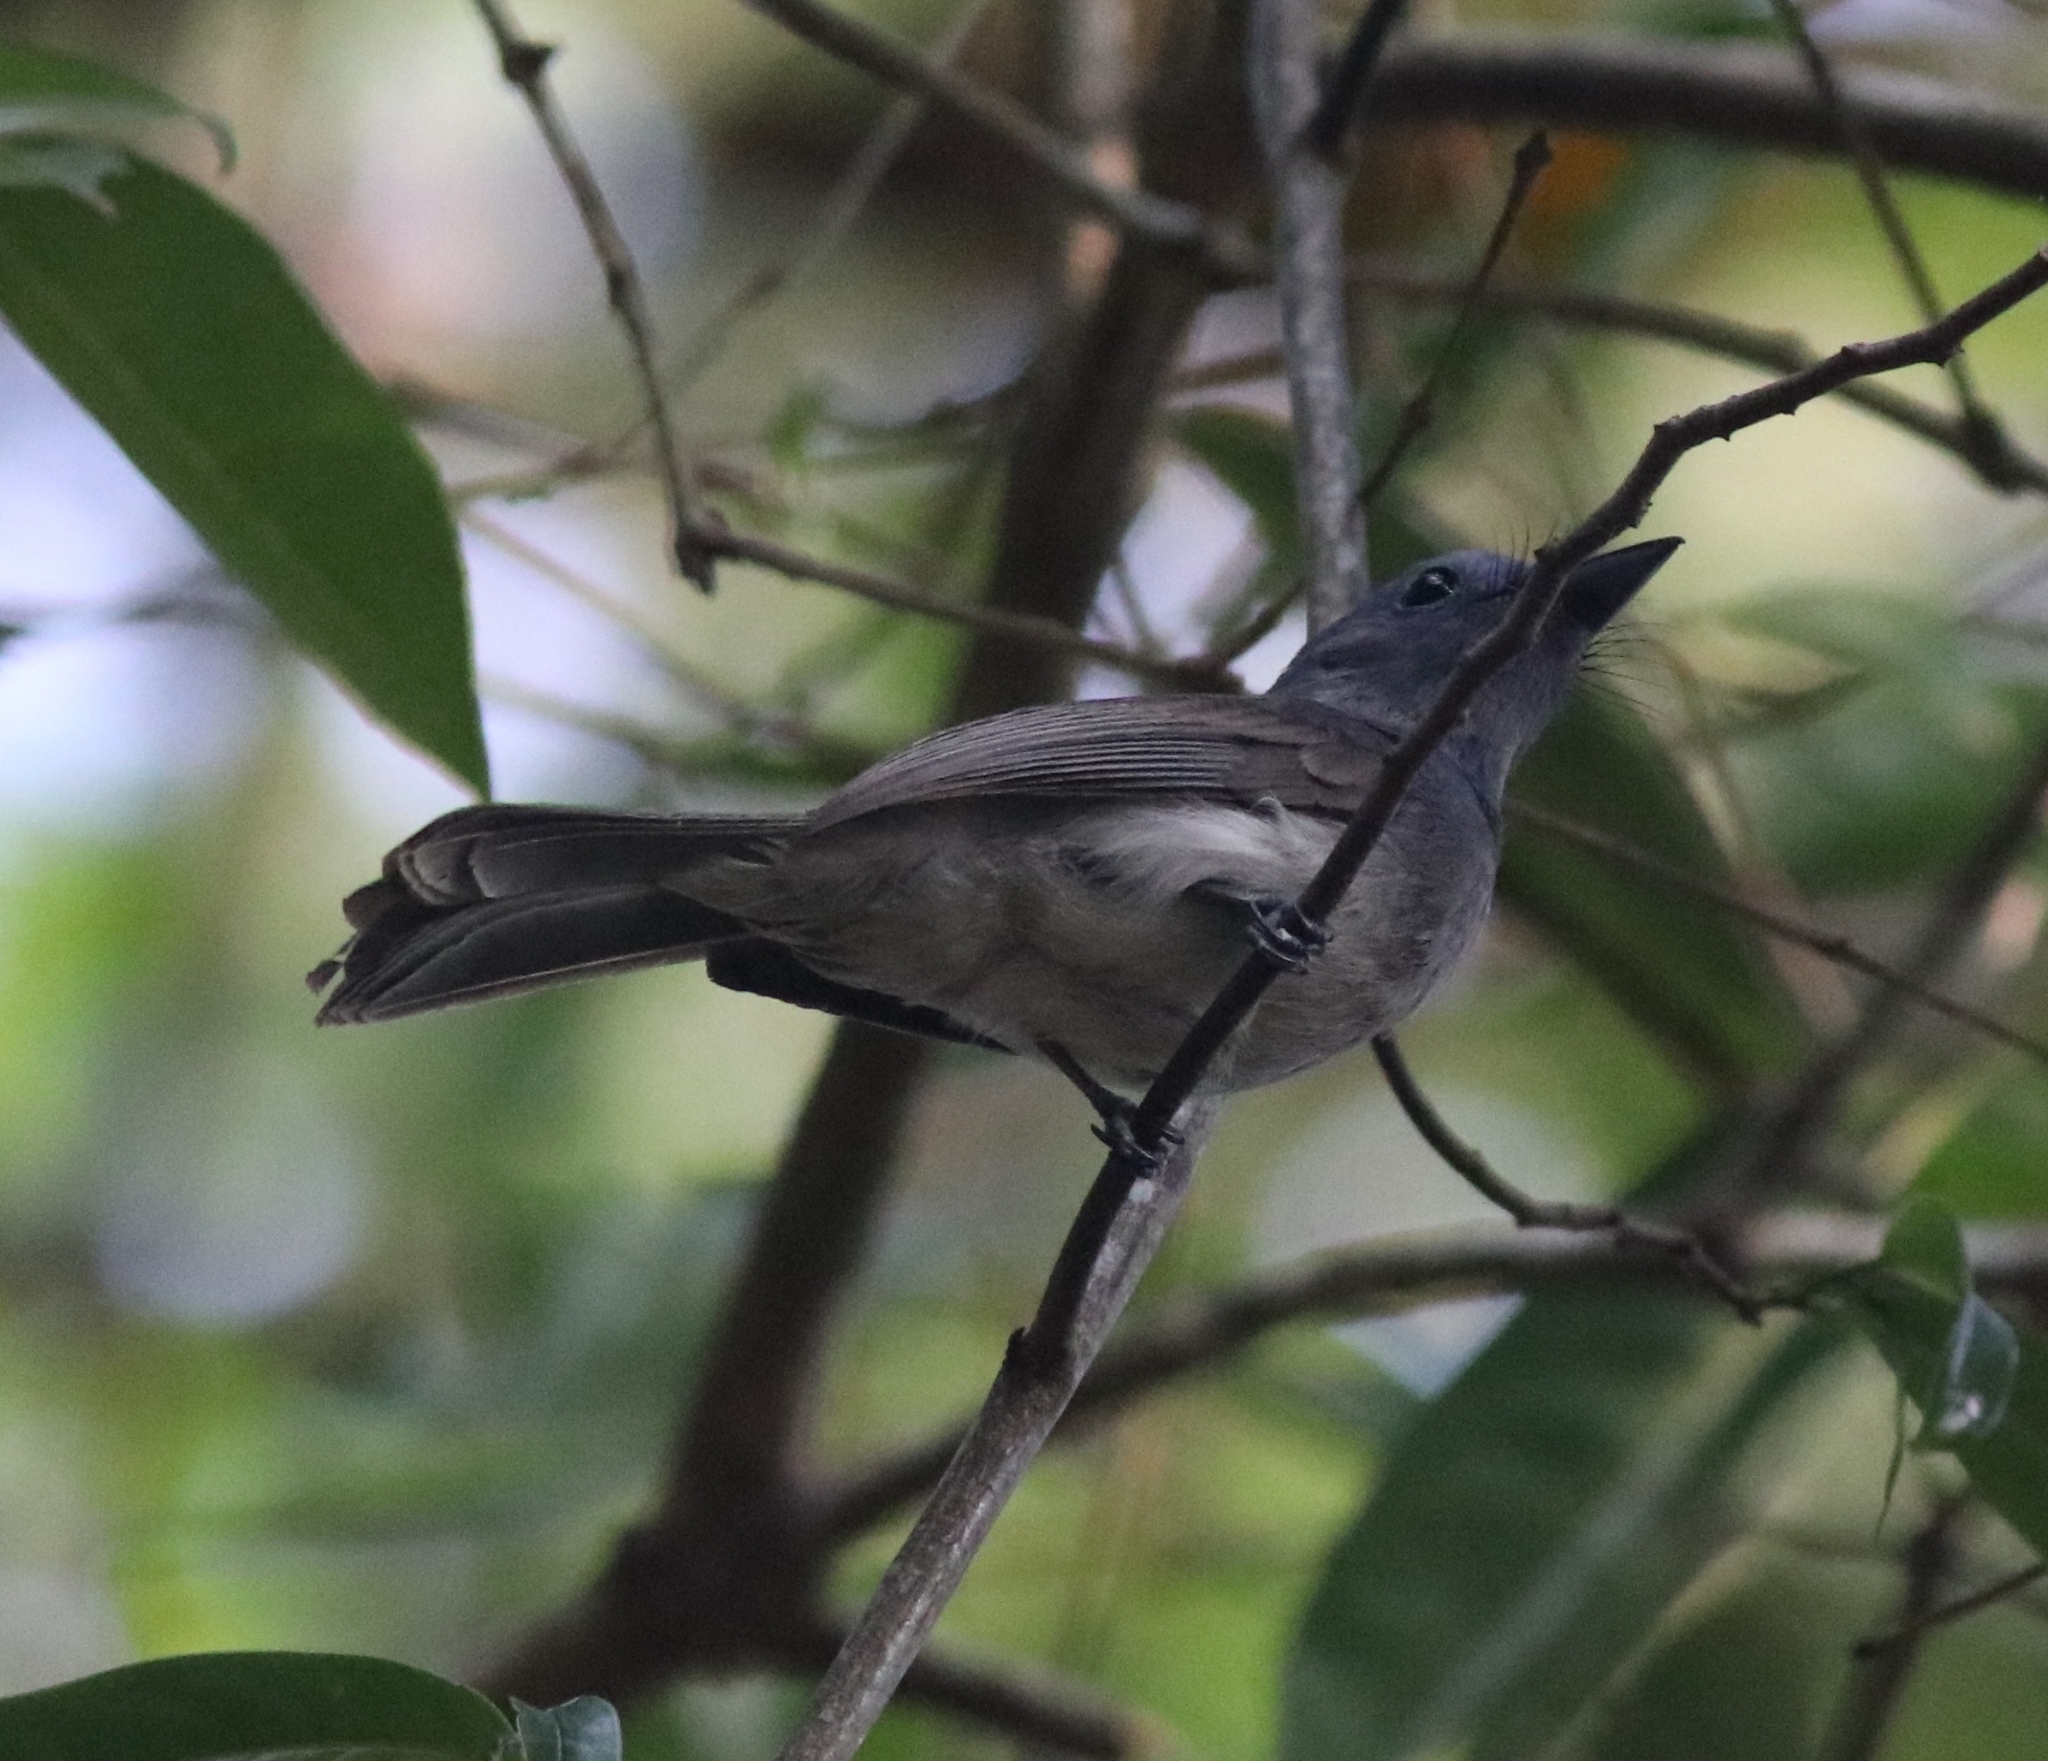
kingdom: Animalia
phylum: Chordata
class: Aves
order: Passeriformes
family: Monarchidae
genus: Hypothymis
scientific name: Hypothymis azurea
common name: Black-naped monarch
